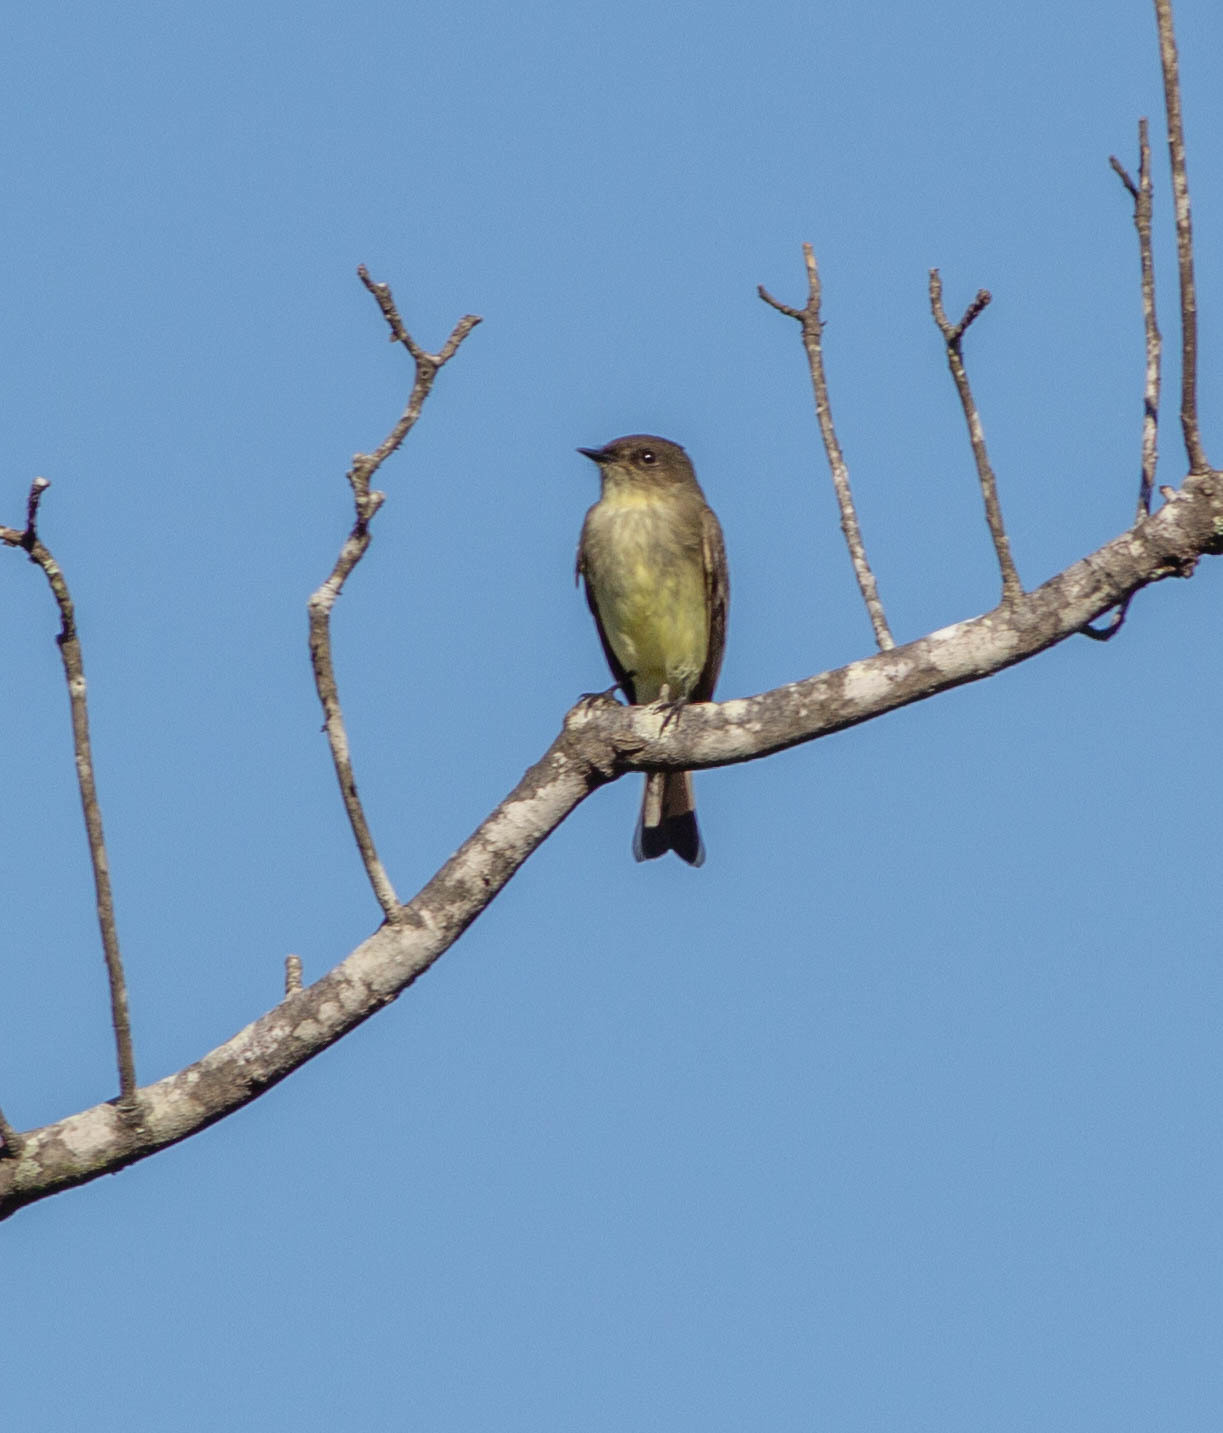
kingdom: Animalia
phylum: Chordata
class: Aves
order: Passeriformes
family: Tyrannidae
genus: Sayornis
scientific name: Sayornis phoebe
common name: Eastern phoebe
